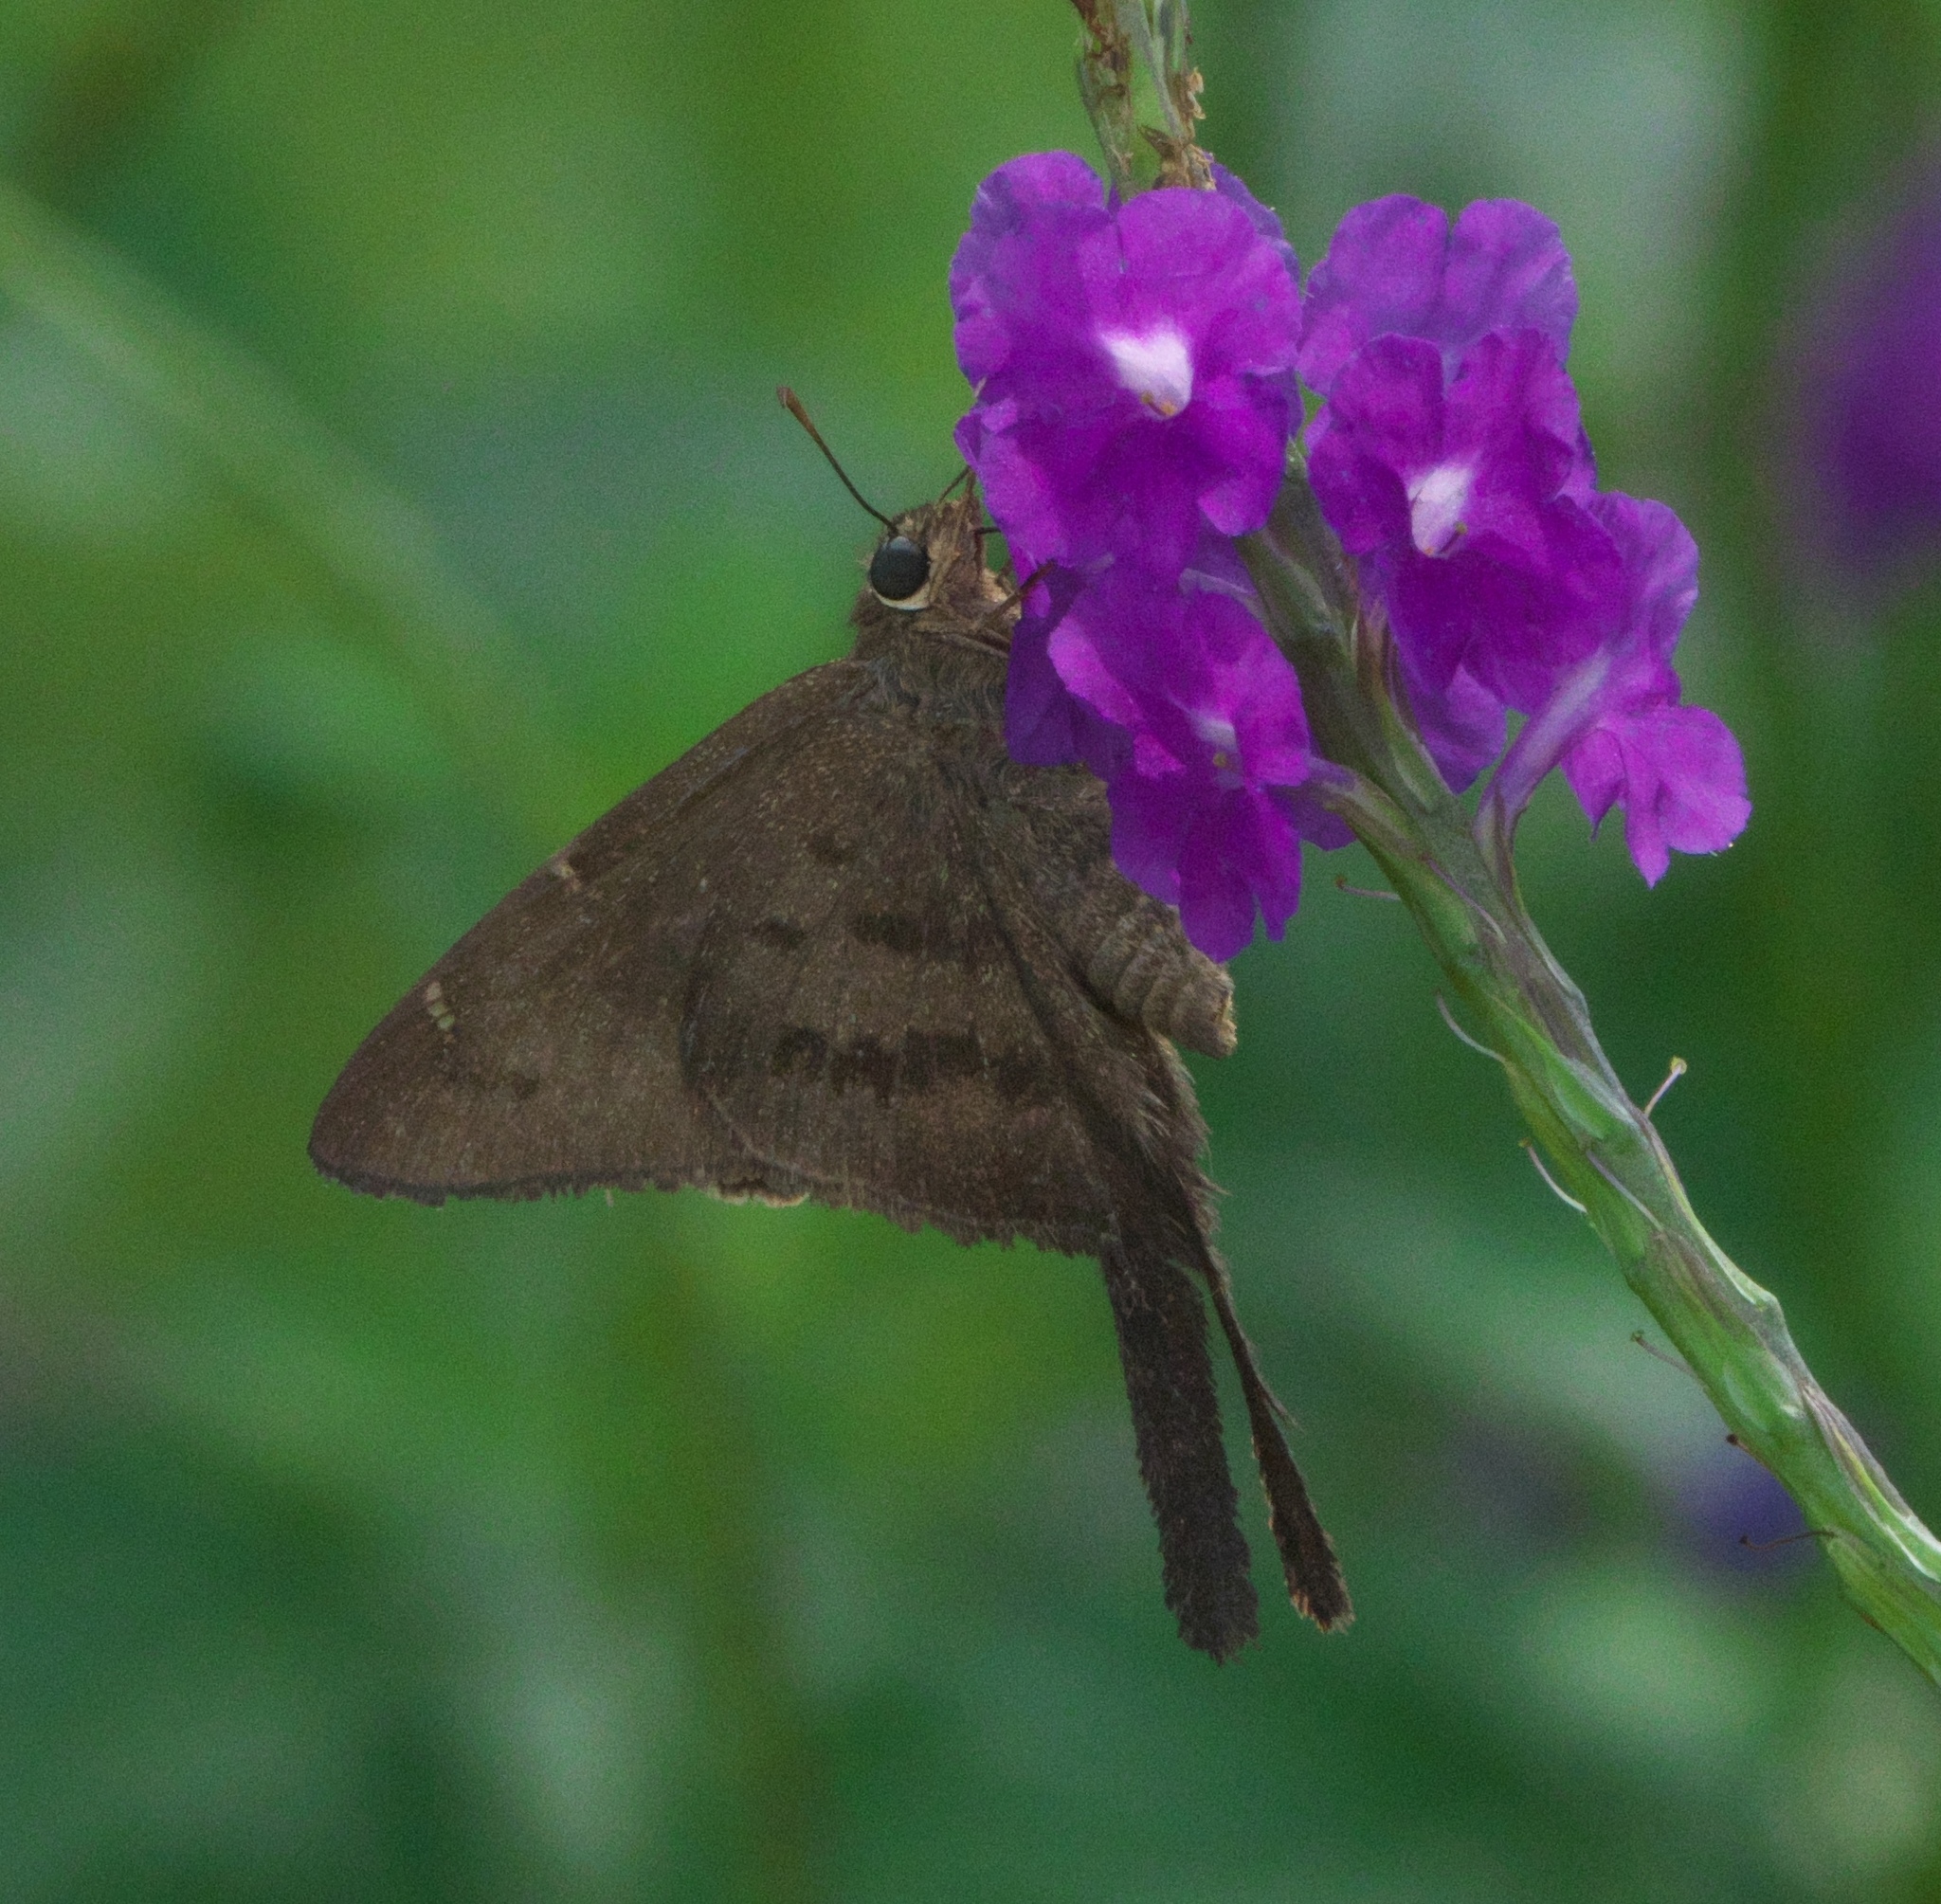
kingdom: Animalia
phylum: Arthropoda
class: Insecta
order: Lepidoptera
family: Hesperiidae
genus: Urbanus
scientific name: Urbanus procne
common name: Brown longtail
